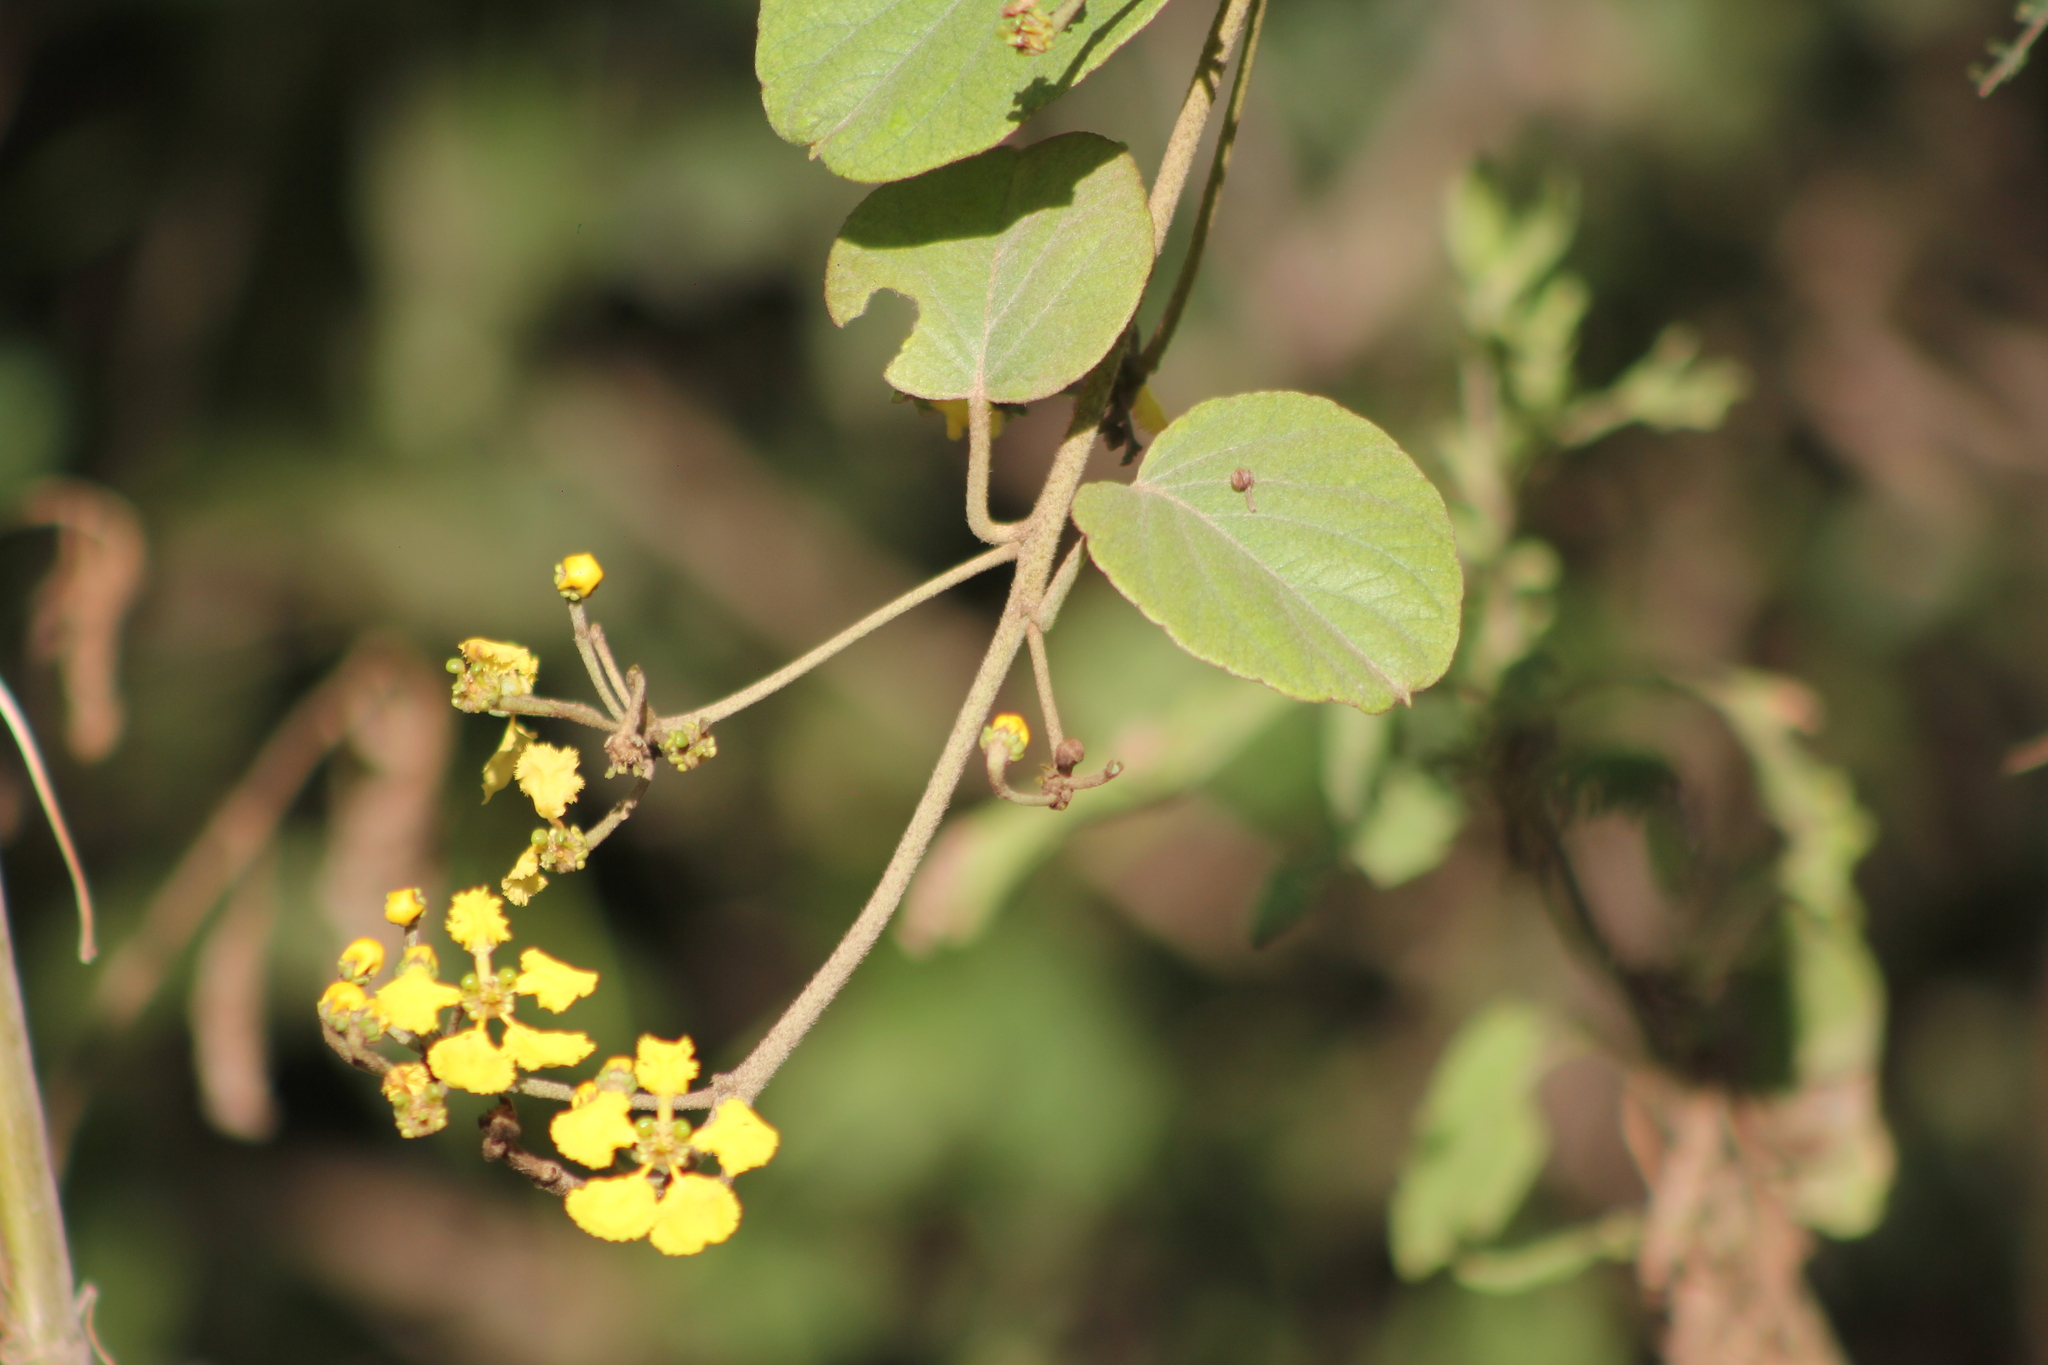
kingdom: Plantae
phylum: Tracheophyta
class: Magnoliopsida
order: Malpighiales
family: Malpighiaceae
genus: Stigmaphyllon
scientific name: Stigmaphyllon bonariense
